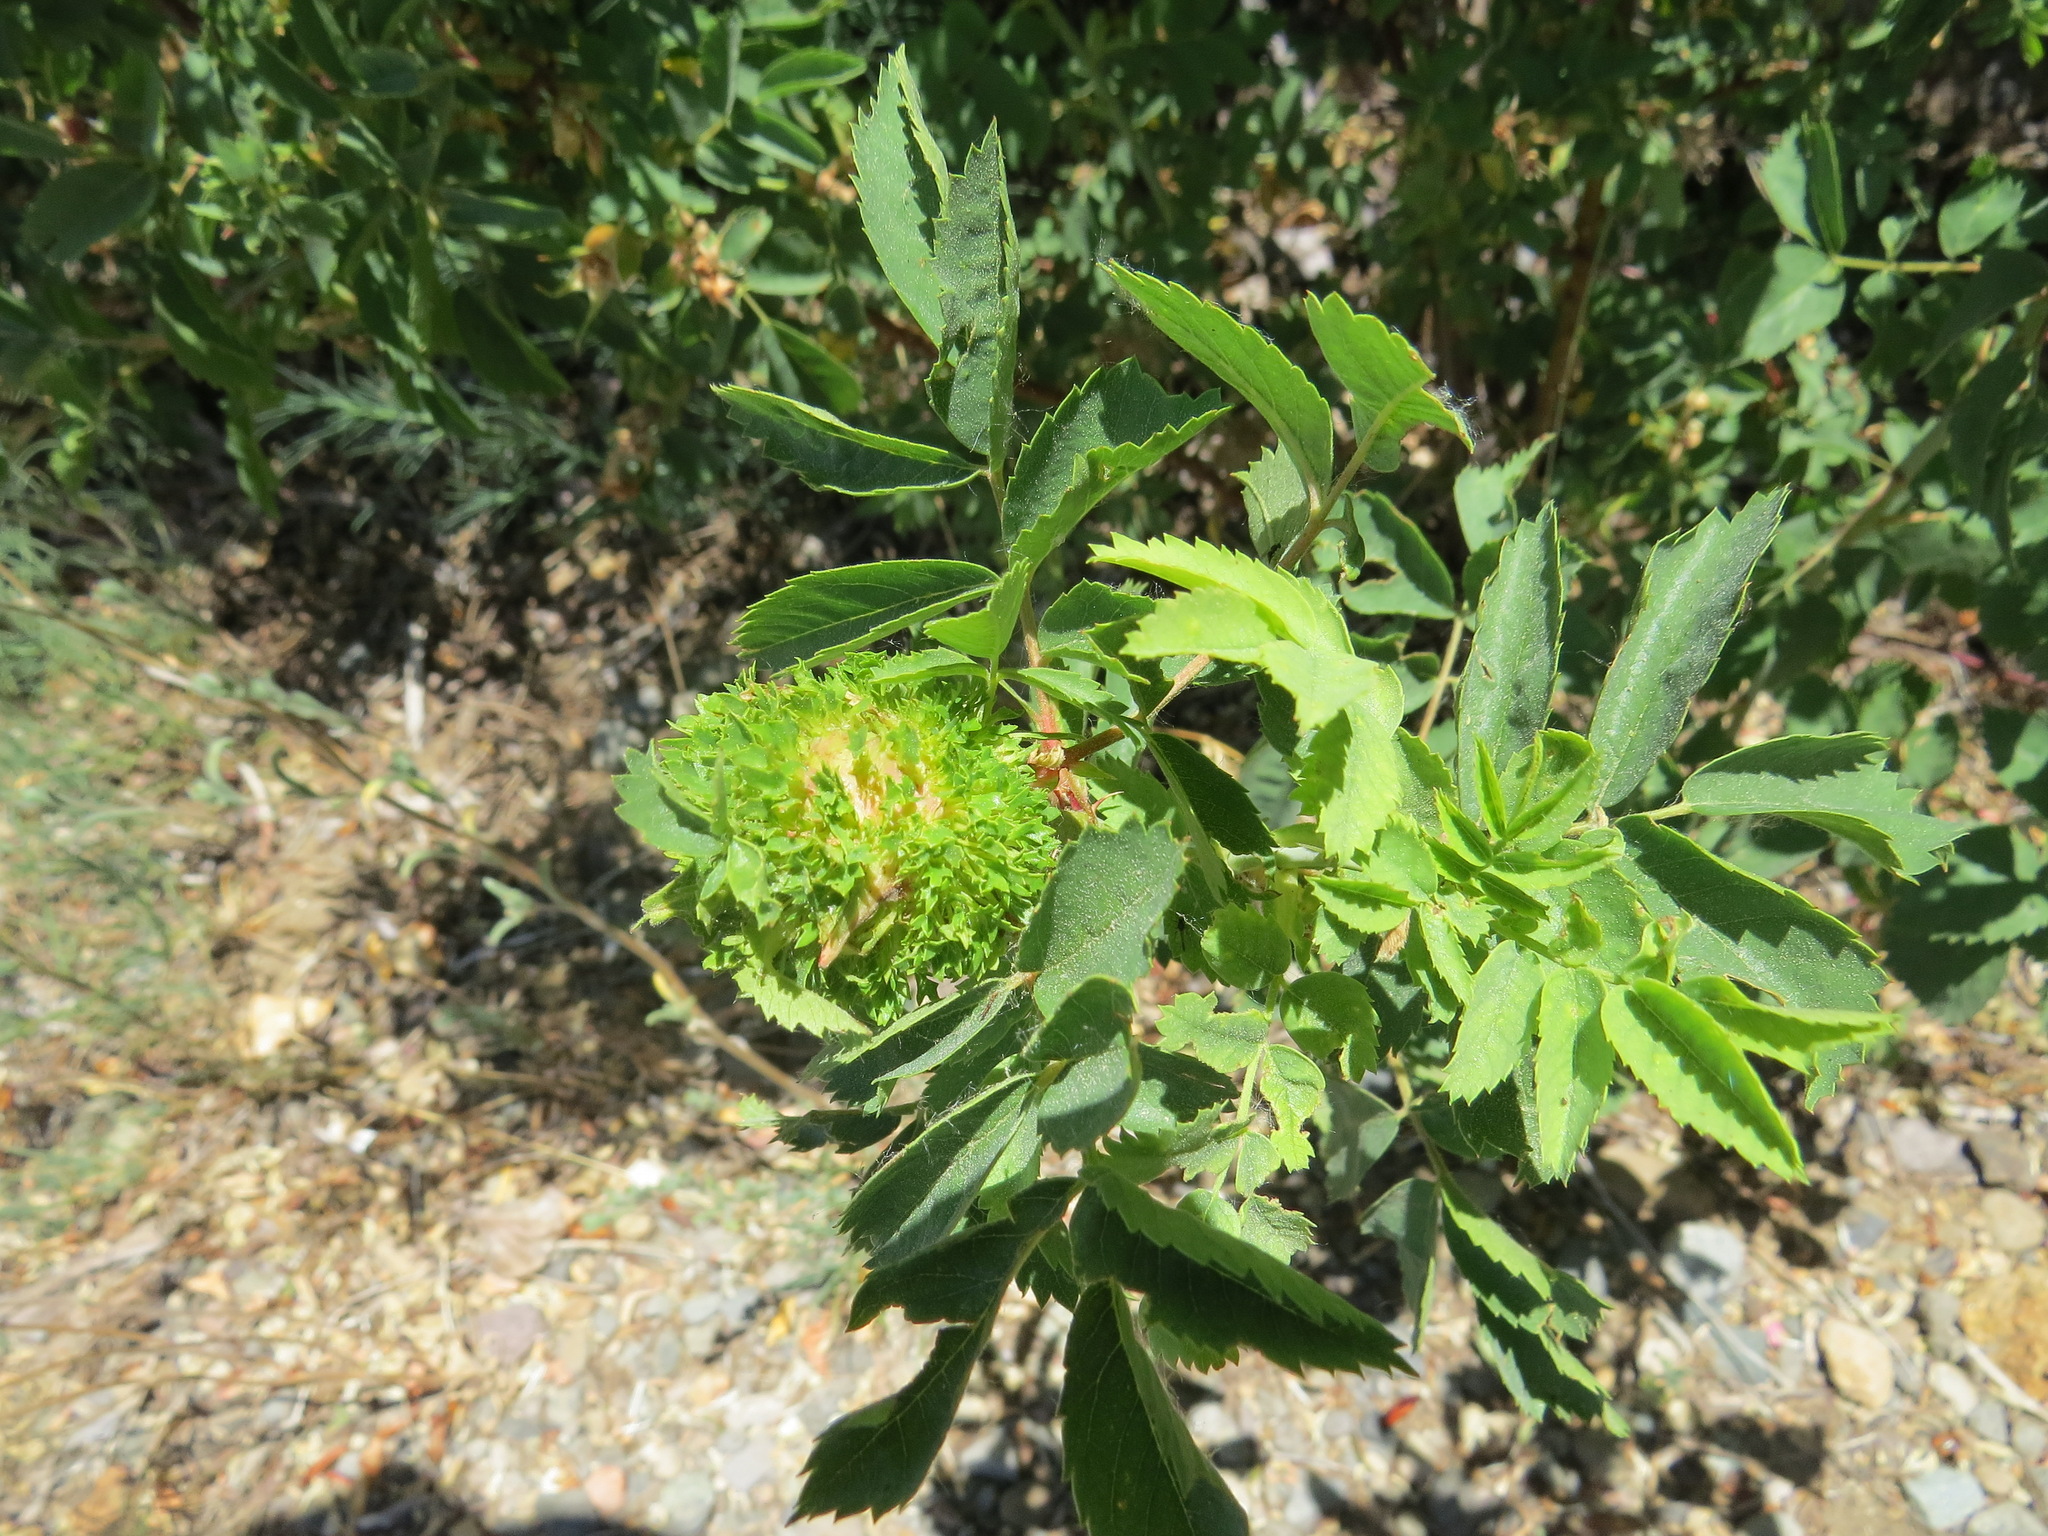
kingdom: Animalia
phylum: Arthropoda
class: Insecta
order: Hymenoptera
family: Cynipidae
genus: Diplolepis
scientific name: Diplolepis californica
